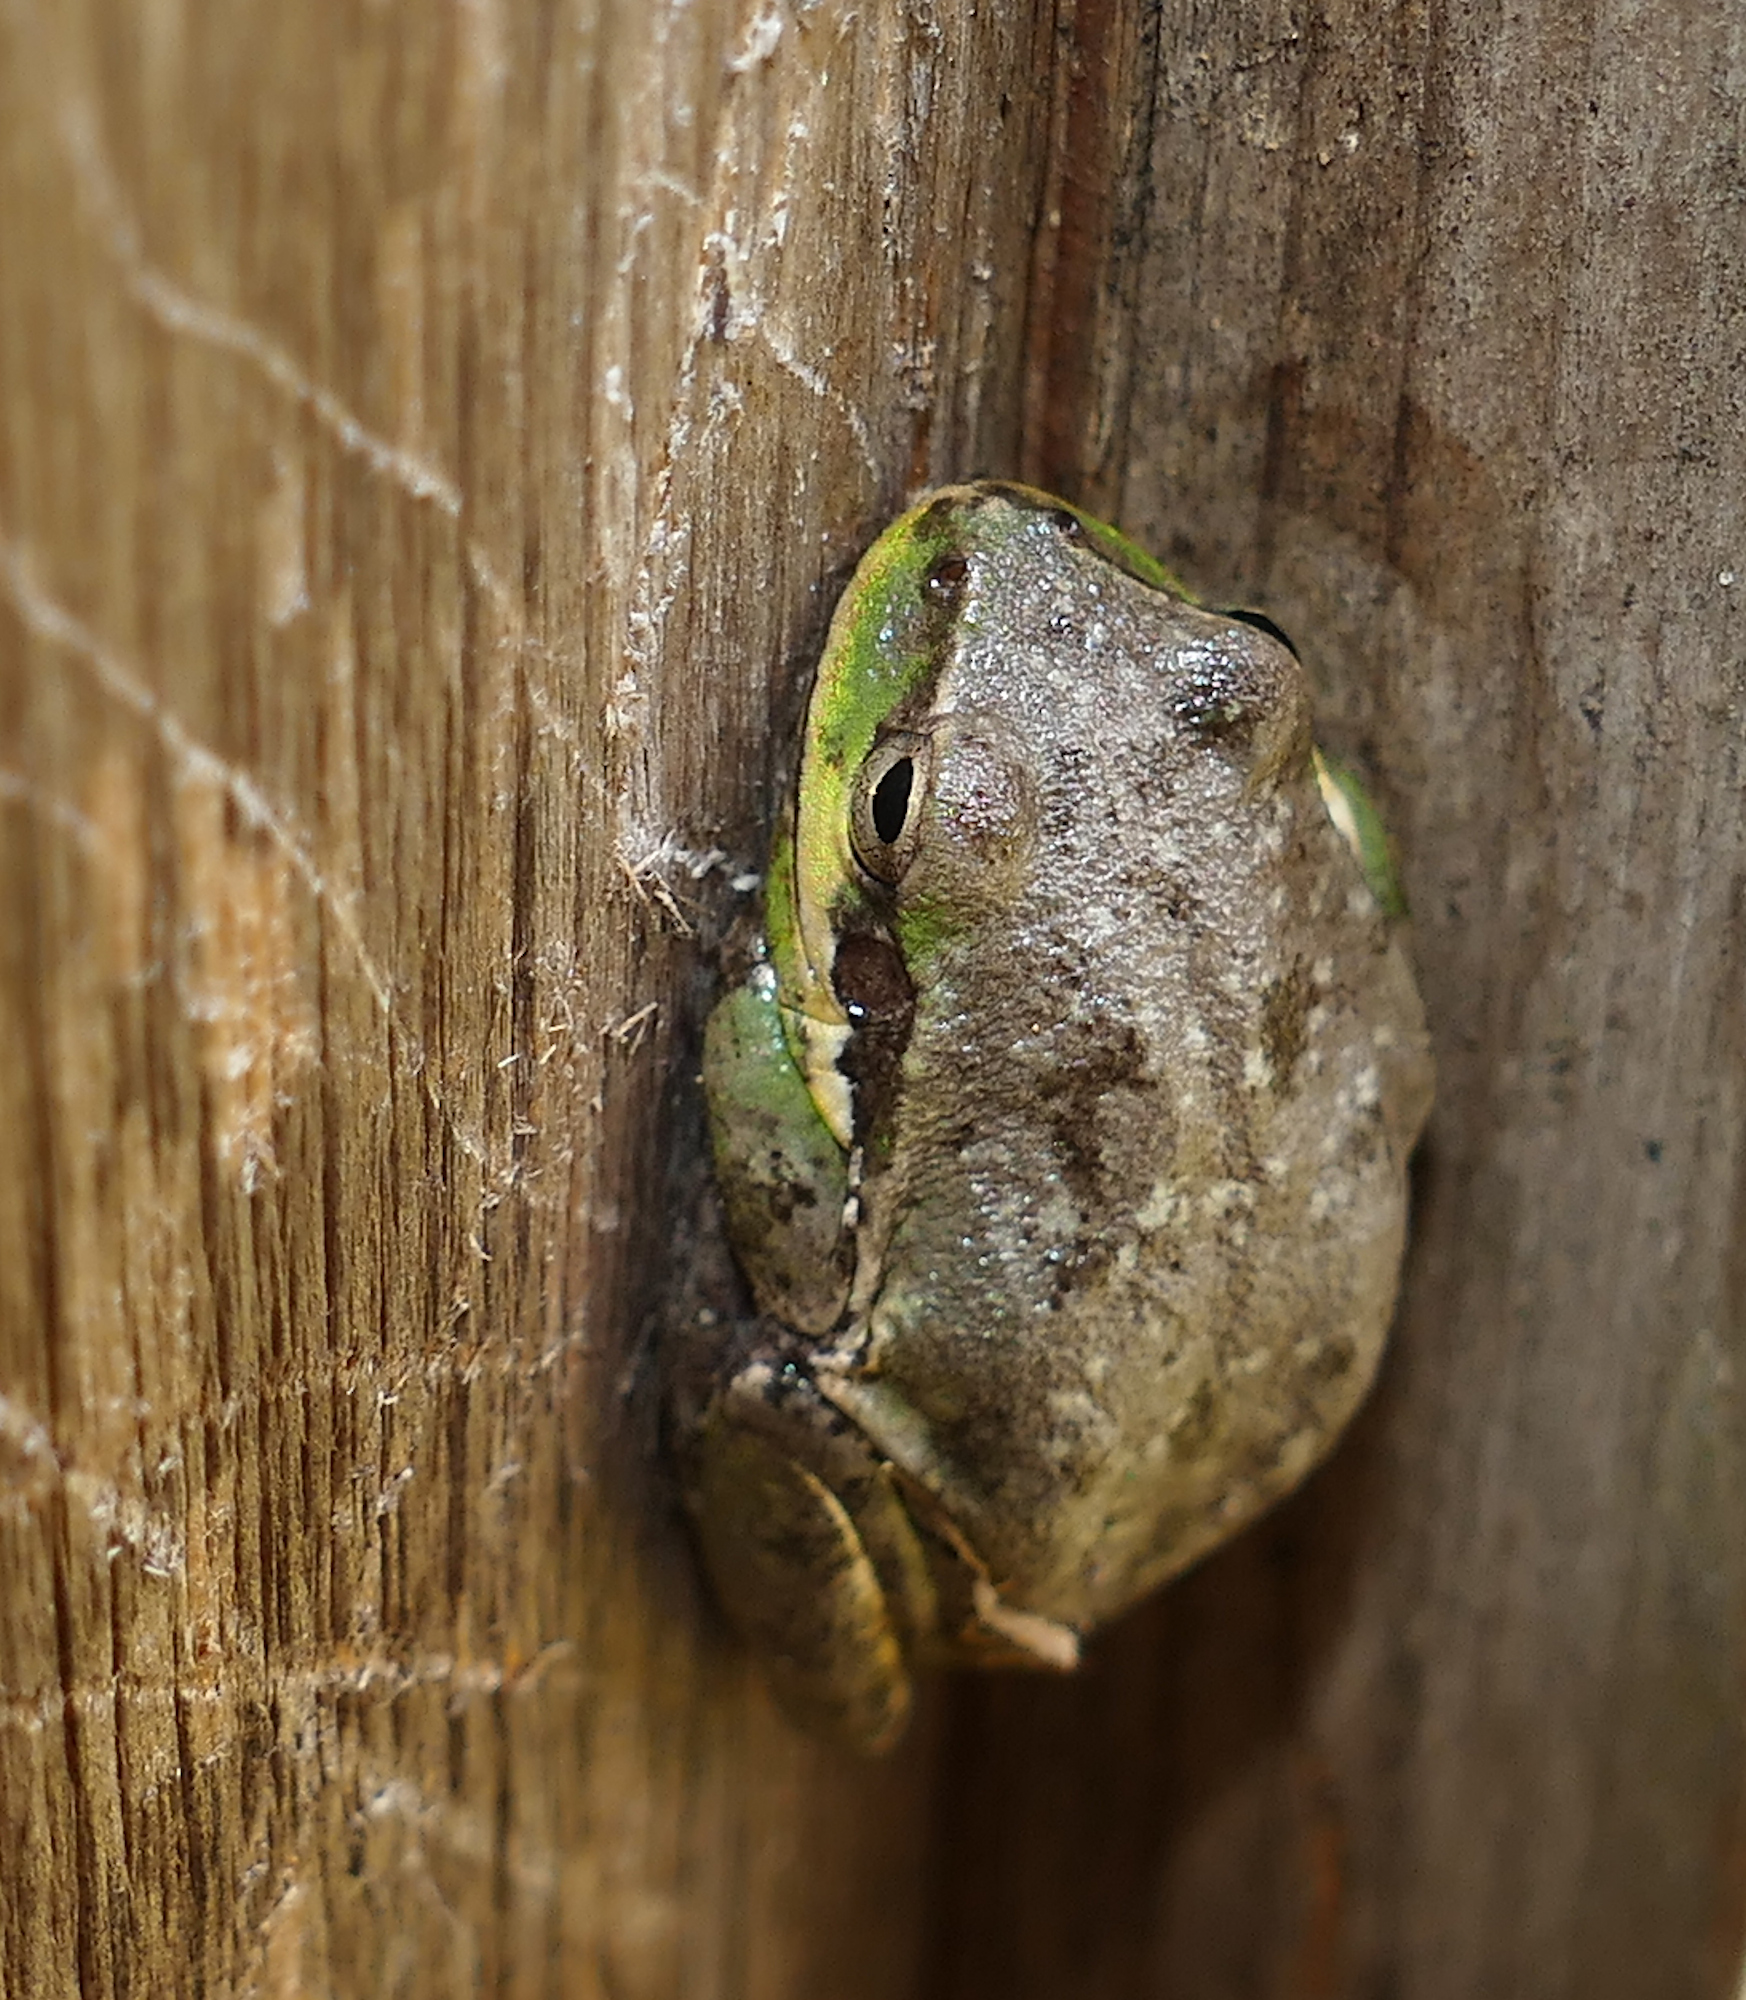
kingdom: Animalia
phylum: Chordata
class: Amphibia
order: Anura
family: Hylidae
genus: Dryophytes
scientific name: Dryophytes squirellus
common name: Squirrel treefrog
